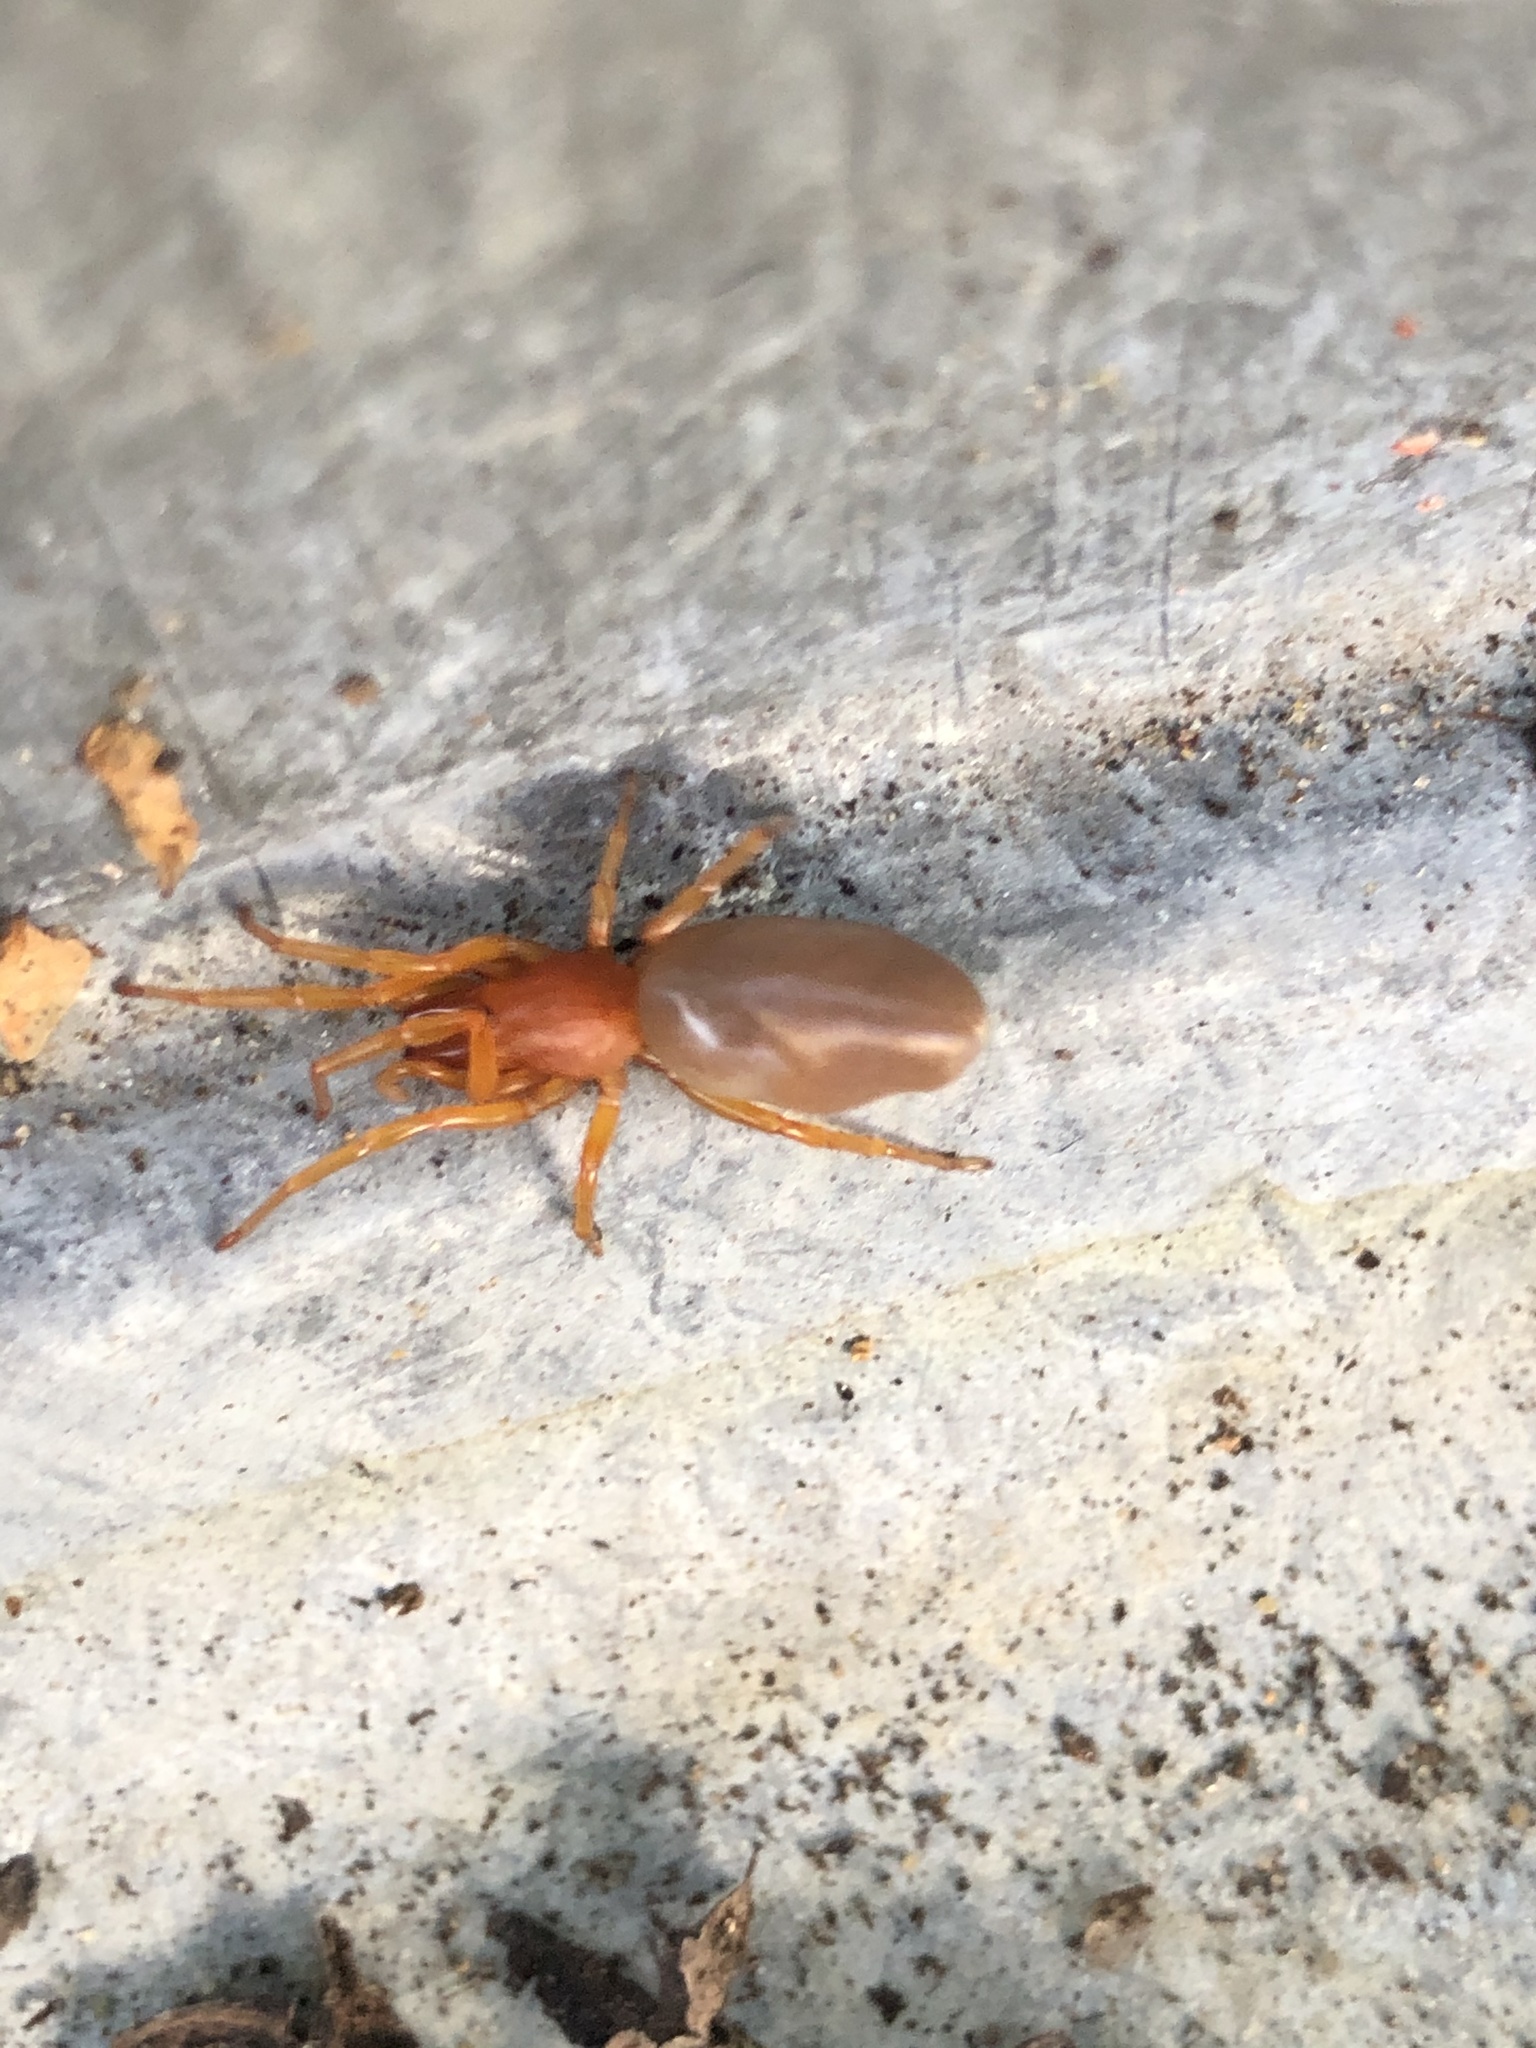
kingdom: Animalia
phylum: Arthropoda
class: Arachnida
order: Araneae
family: Dysderidae
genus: Dysdera
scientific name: Dysdera crocata
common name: Woodlouse spider
